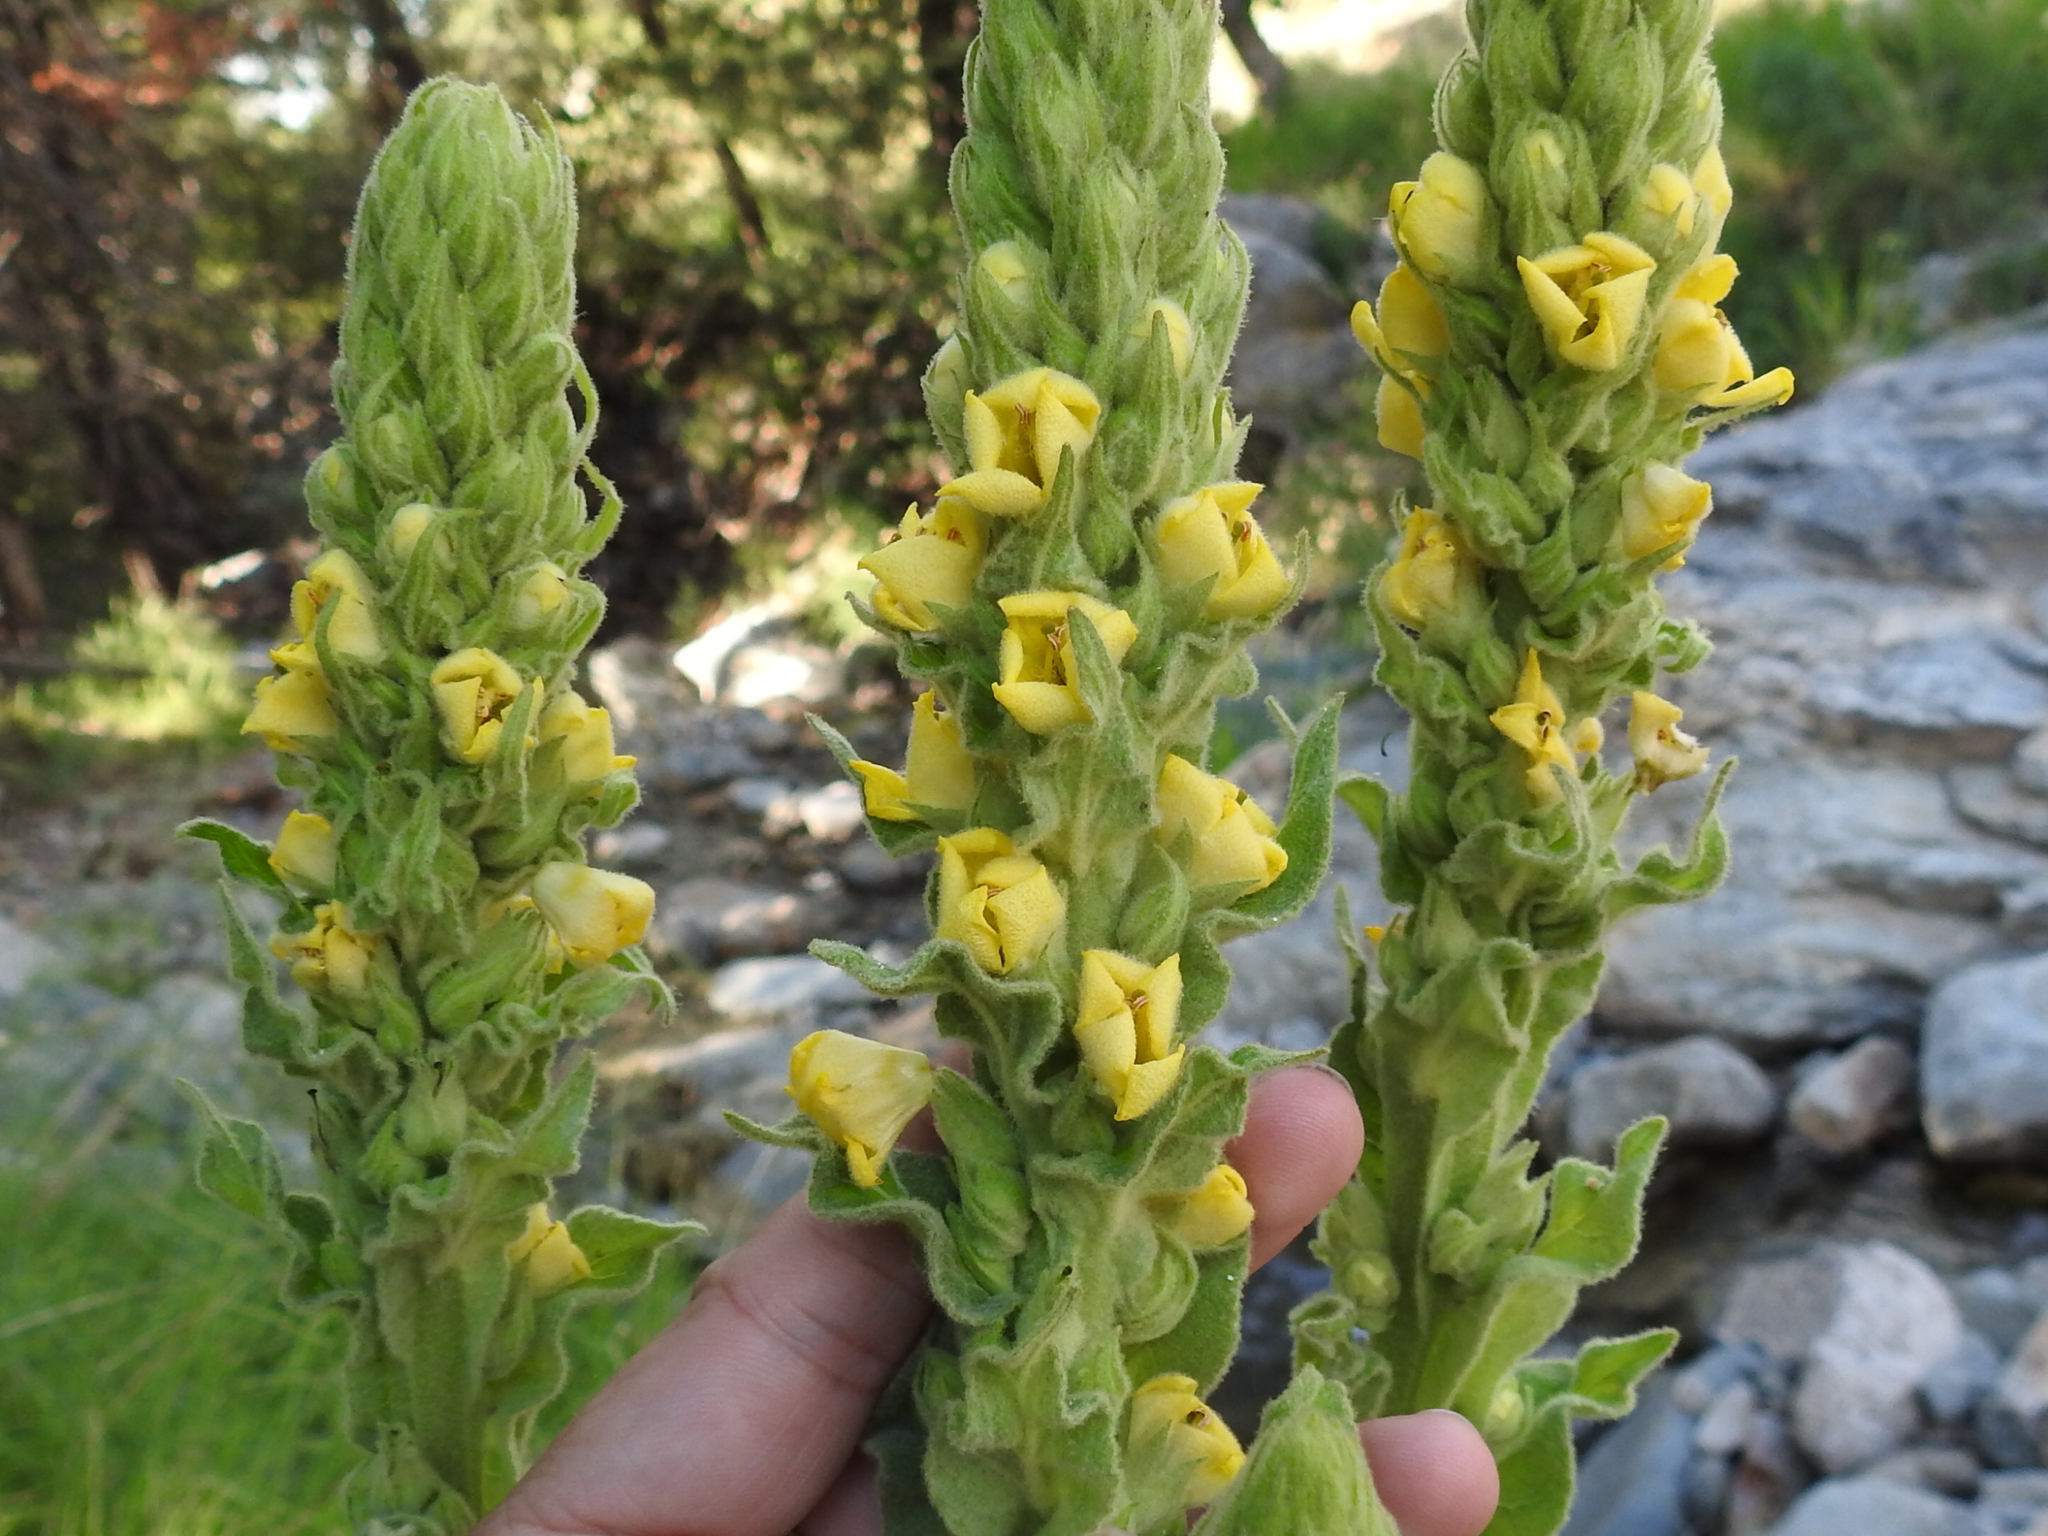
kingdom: Plantae
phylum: Tracheophyta
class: Magnoliopsida
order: Lamiales
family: Scrophulariaceae
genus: Verbascum
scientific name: Verbascum thapsus
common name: Common mullein
